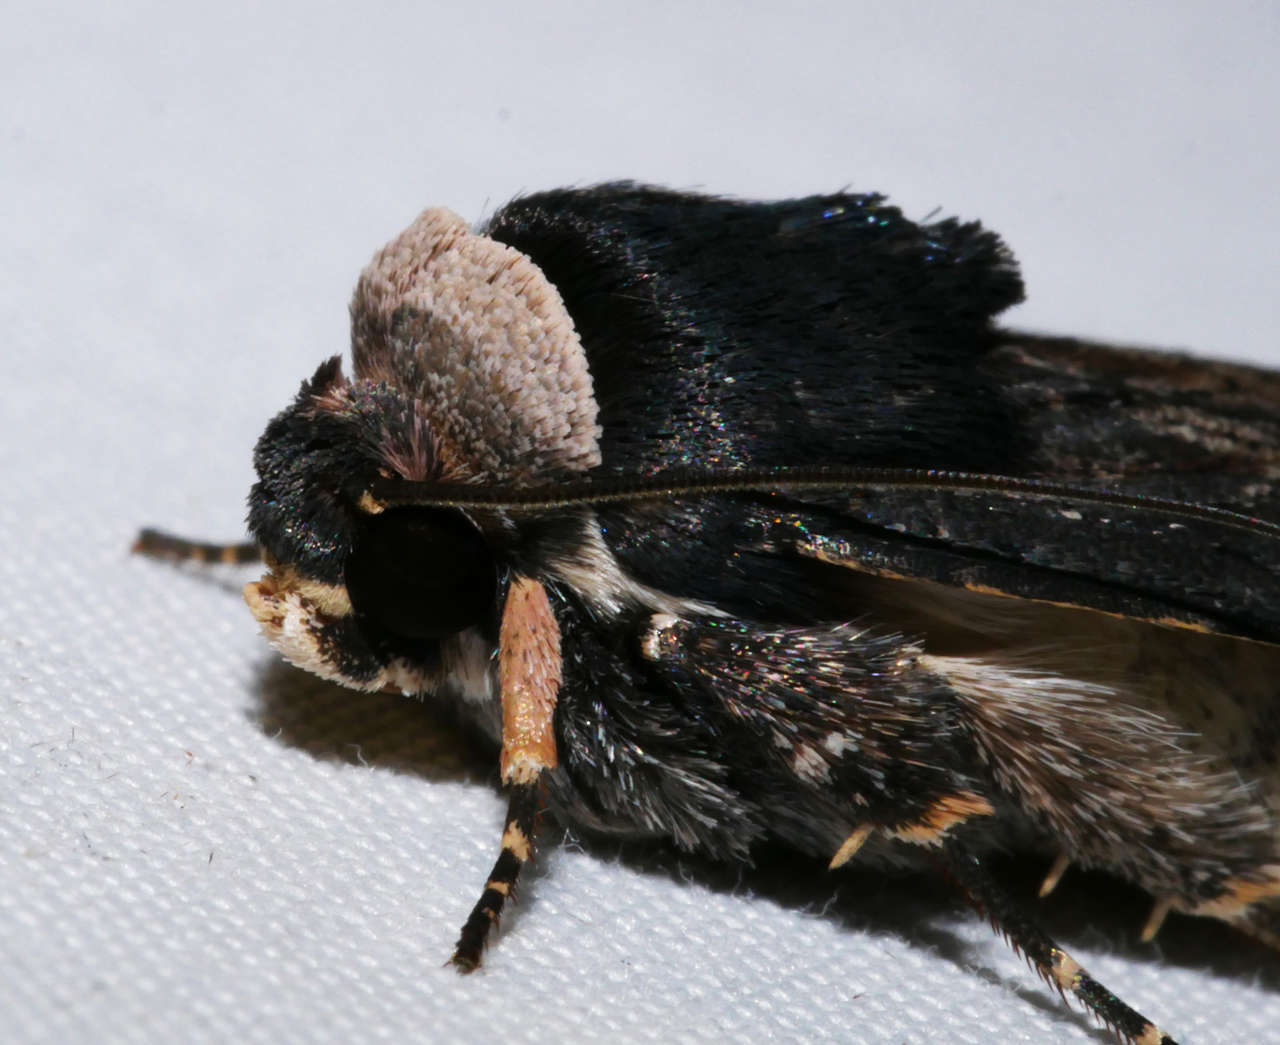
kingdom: Animalia
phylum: Arthropoda
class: Insecta
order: Lepidoptera
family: Noctuidae
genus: Proteuxoa
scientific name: Proteuxoa cinereicollis
